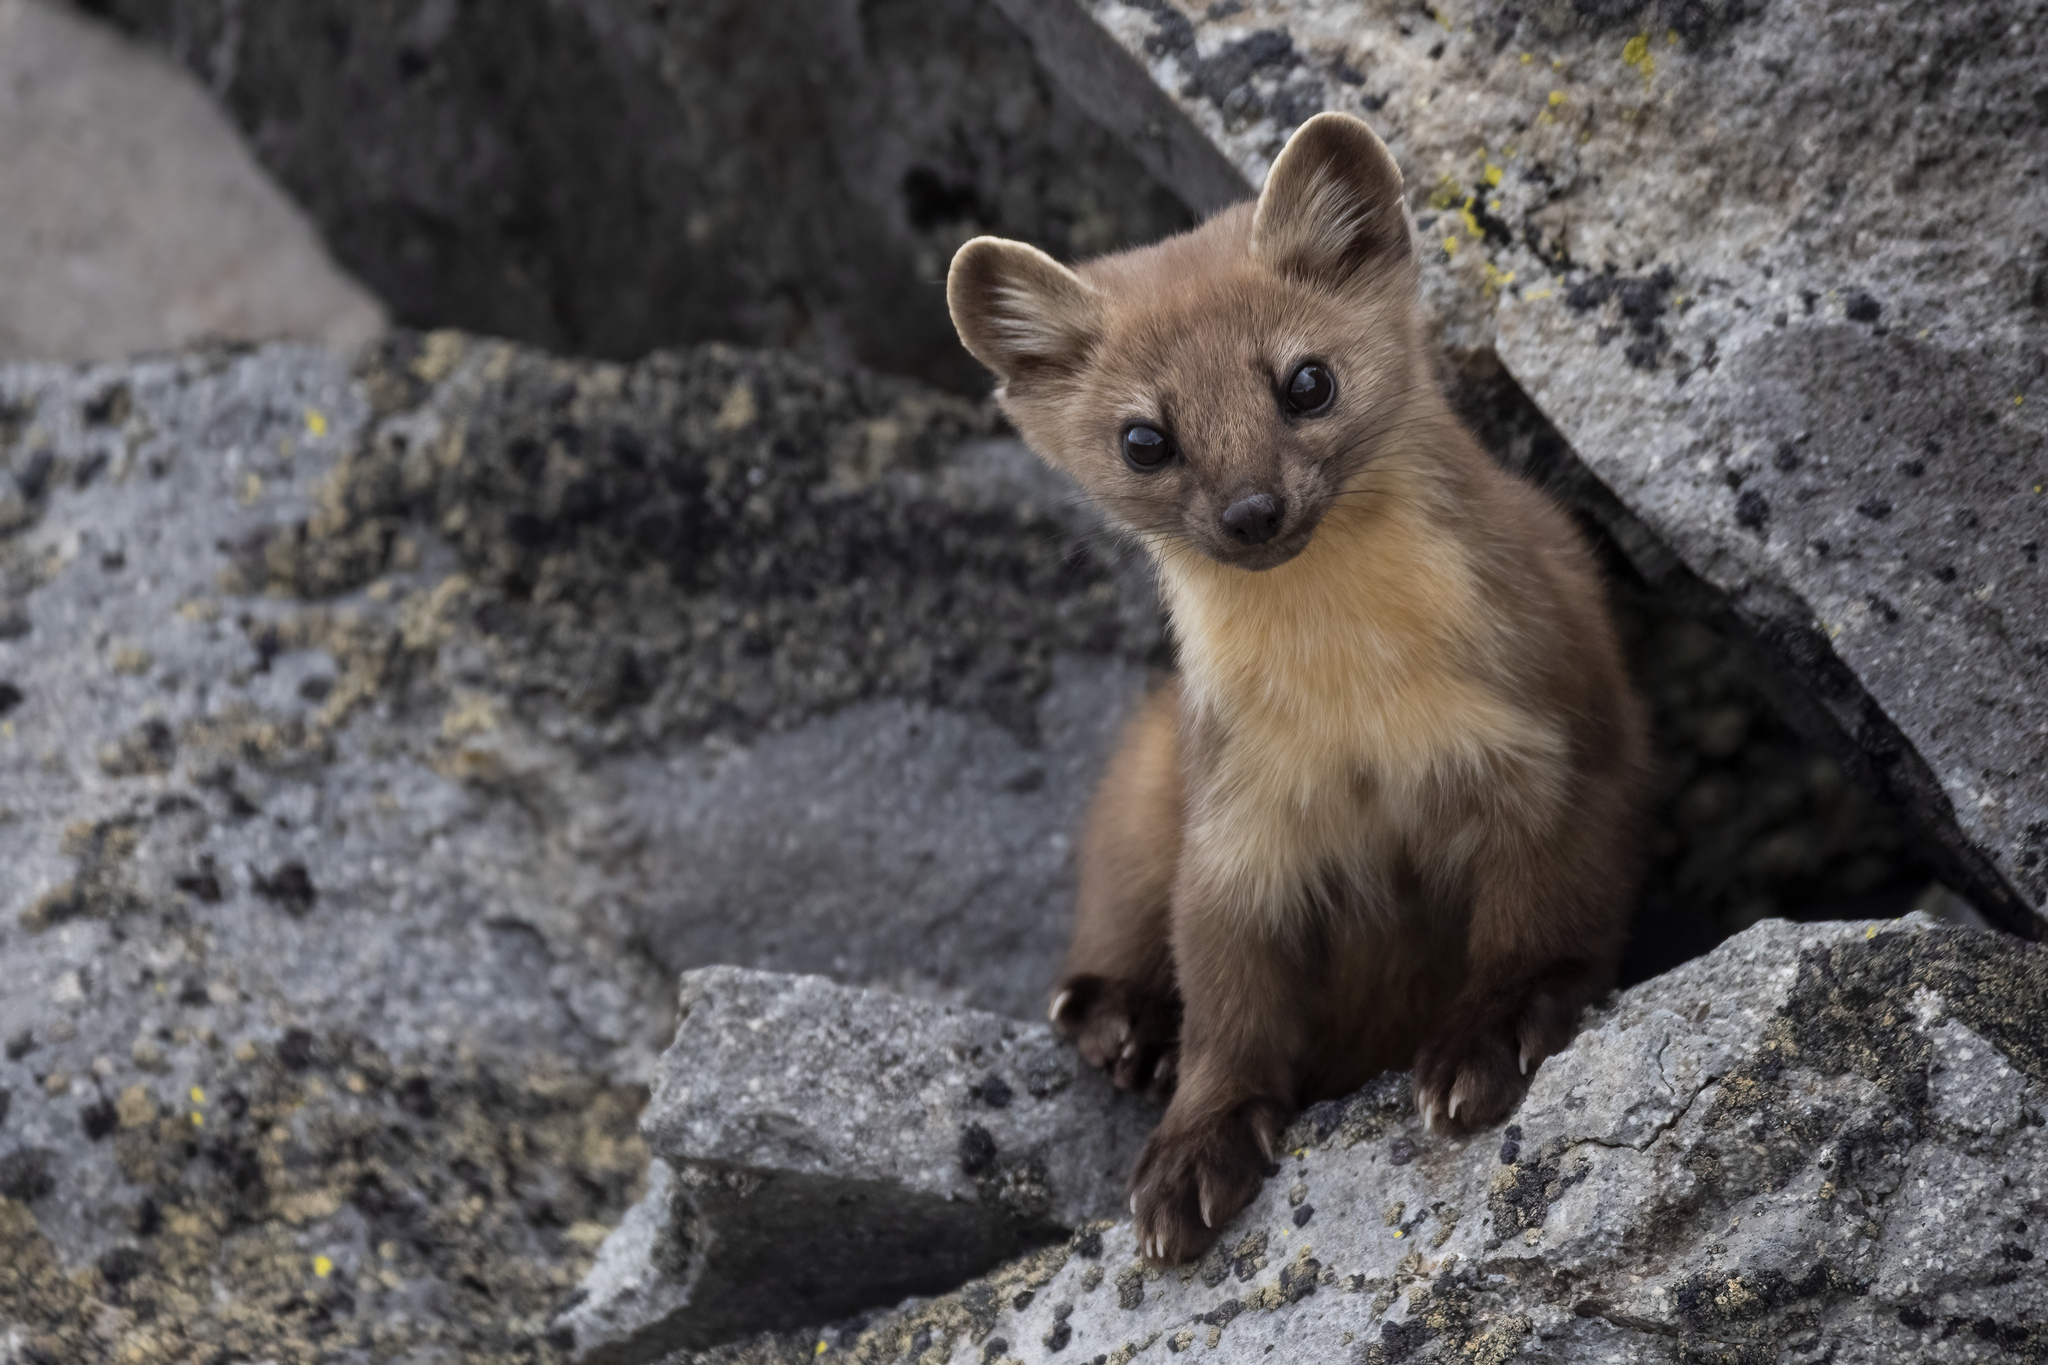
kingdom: Animalia
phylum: Chordata
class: Mammalia
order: Carnivora
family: Mustelidae
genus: Martes
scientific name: Martes caurina
